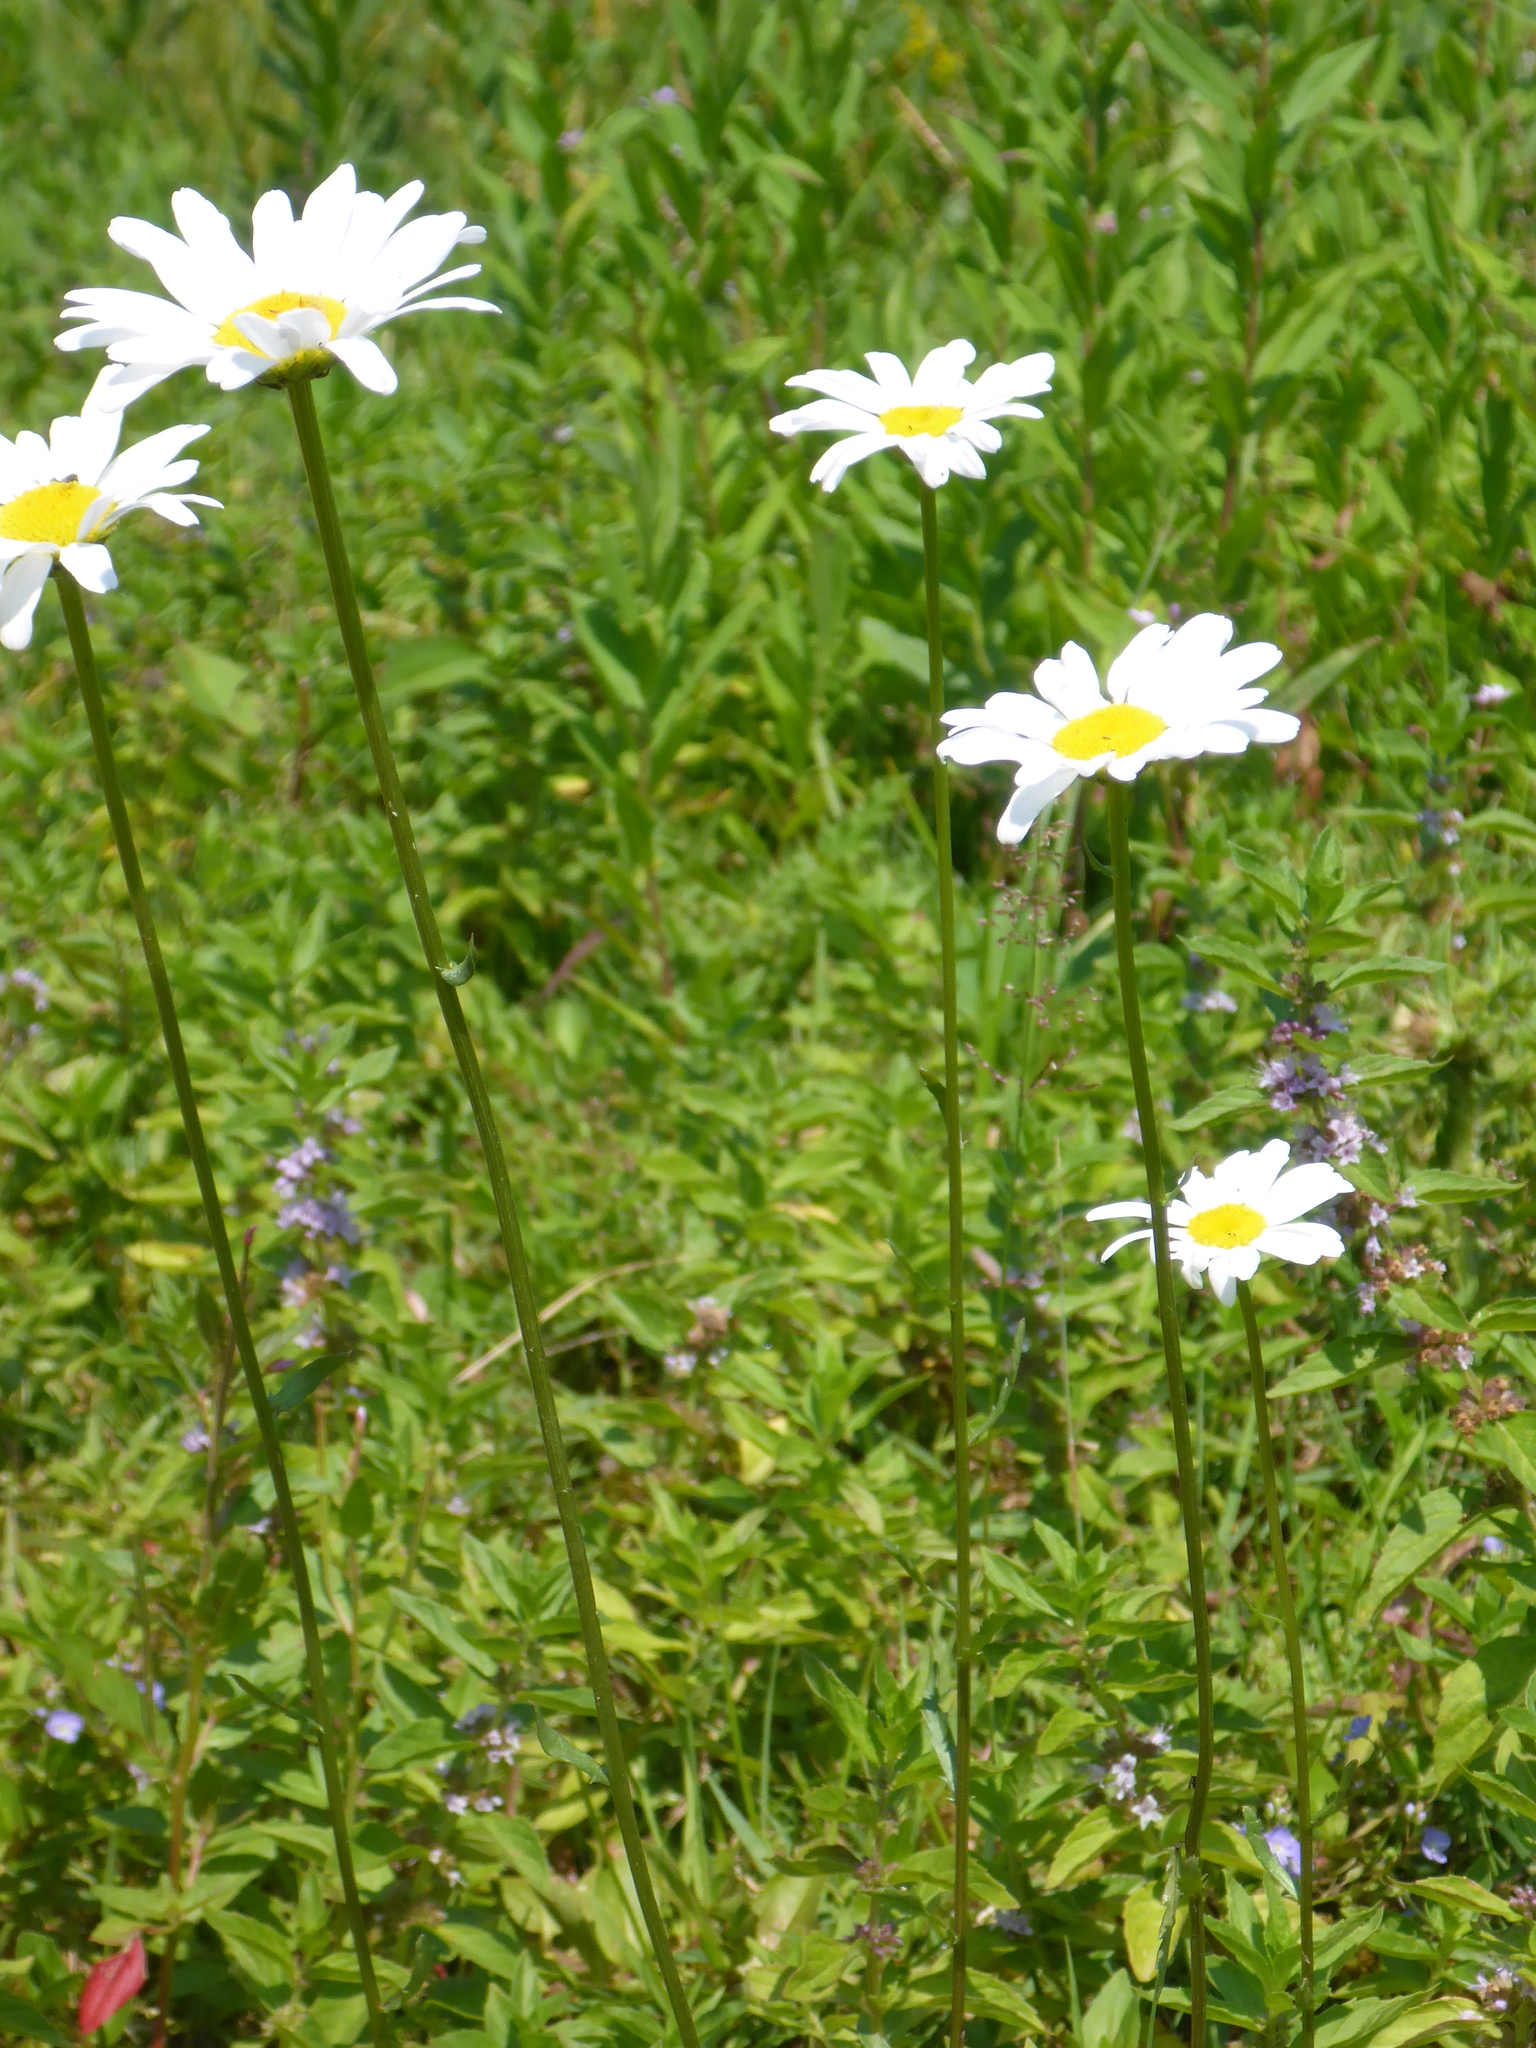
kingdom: Plantae
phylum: Tracheophyta
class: Magnoliopsida
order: Asterales
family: Asteraceae
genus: Leucanthemum
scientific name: Leucanthemum vulgare
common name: Oxeye daisy
